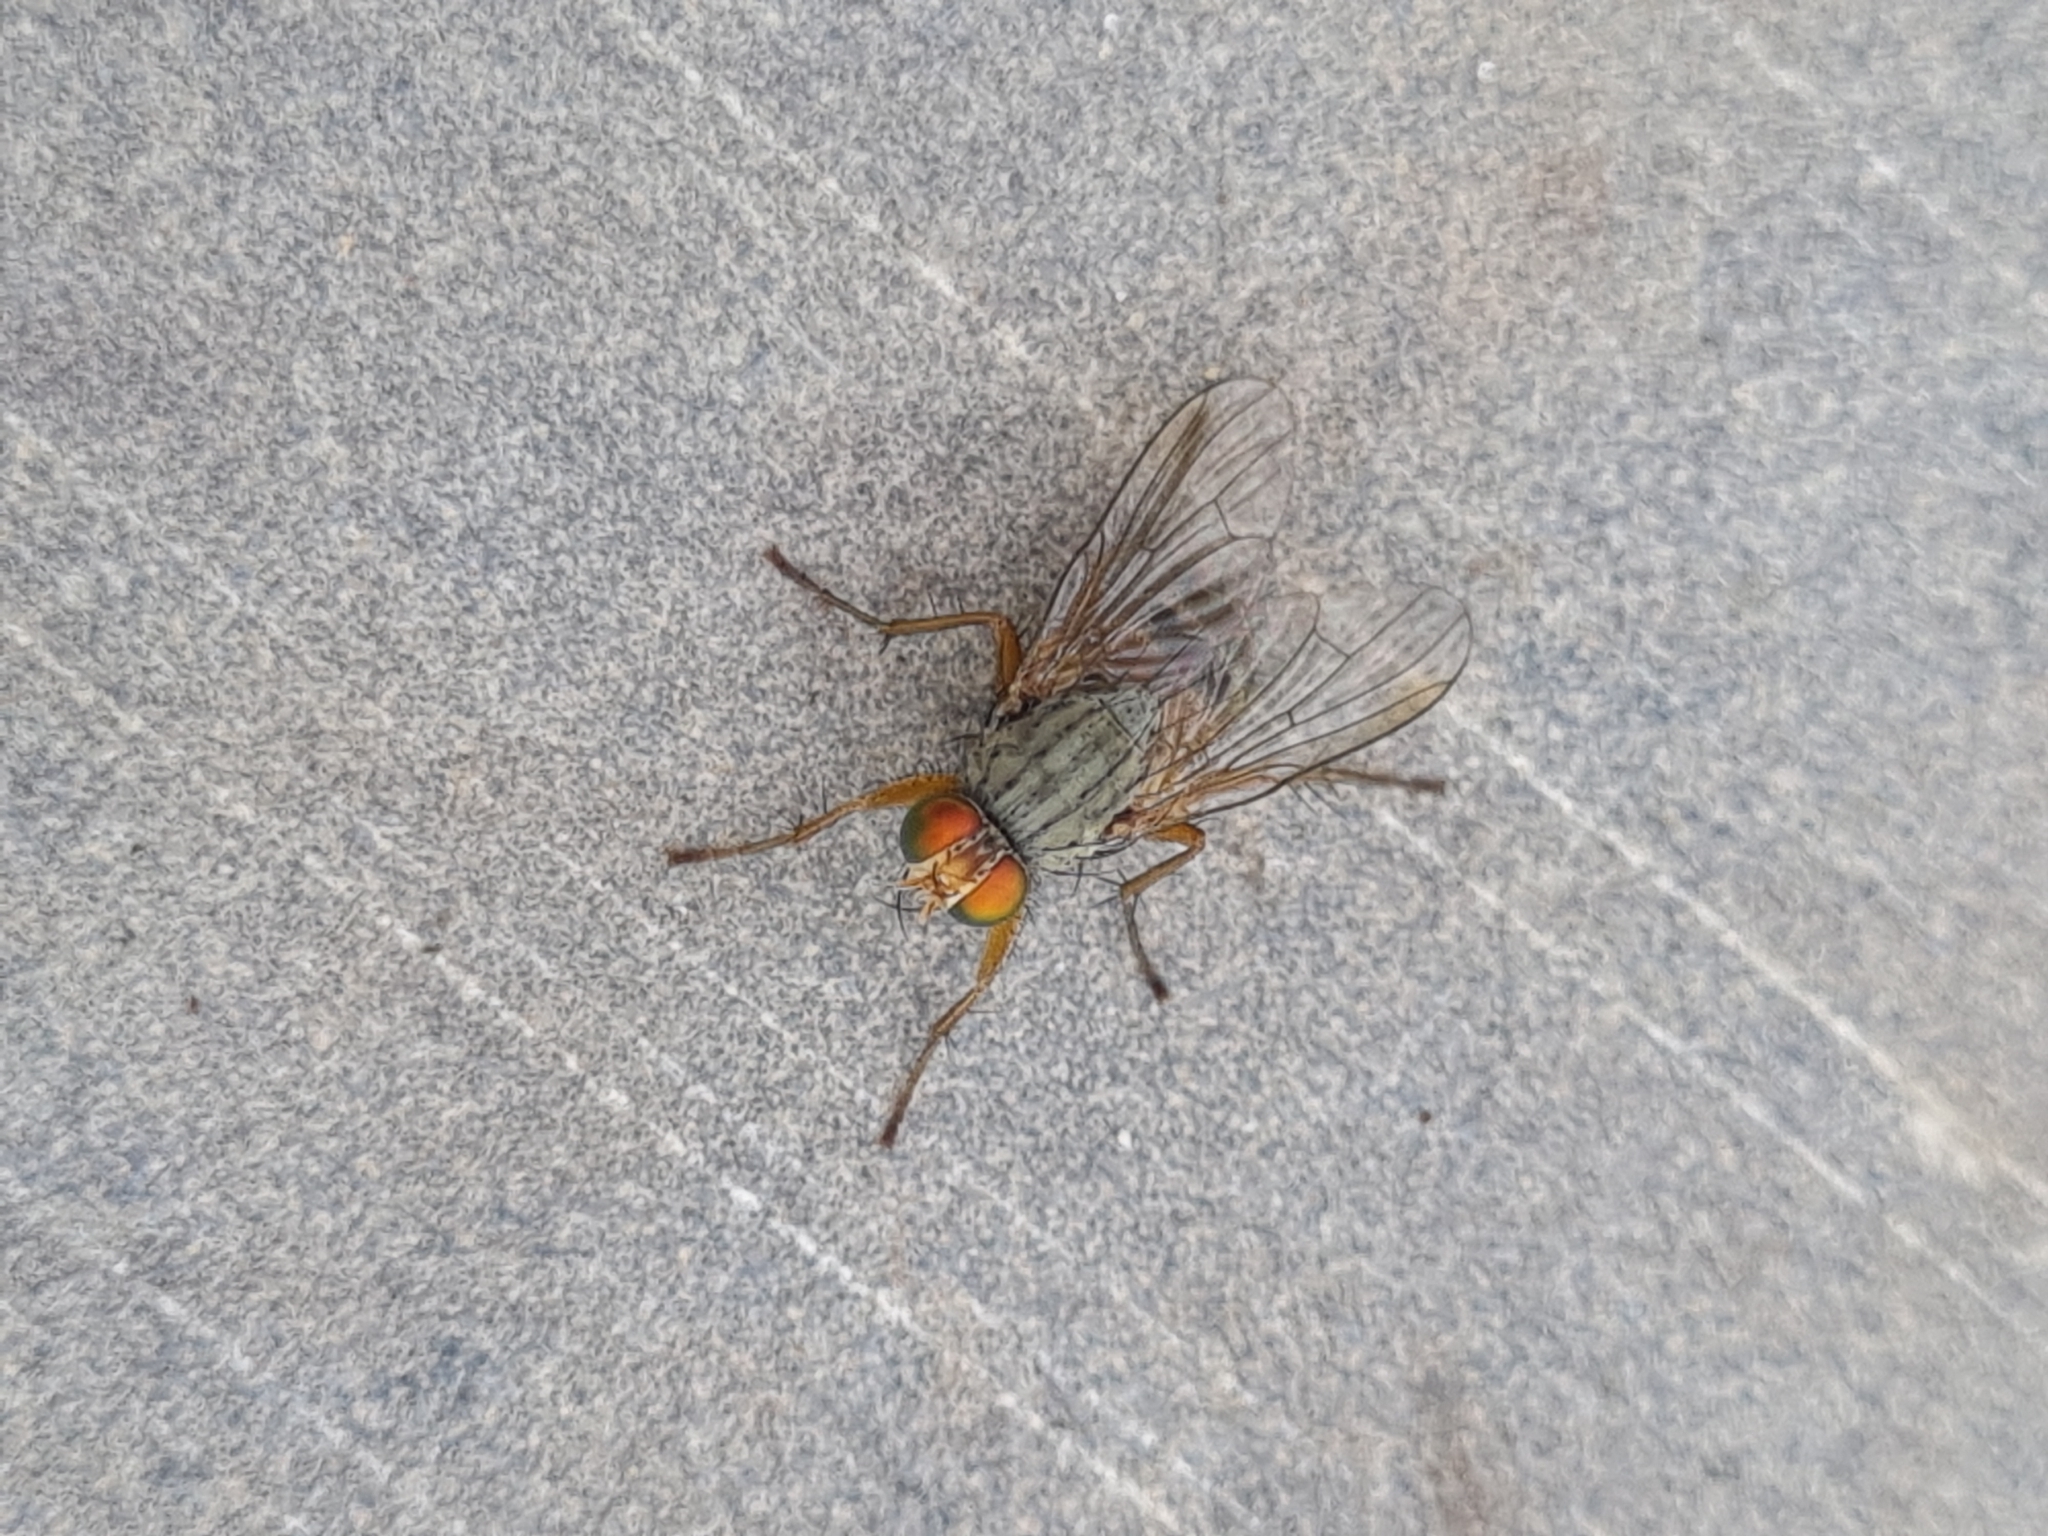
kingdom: Animalia
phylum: Arthropoda
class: Insecta
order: Diptera
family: Muscidae
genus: Pygophora
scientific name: Pygophora apicalis
